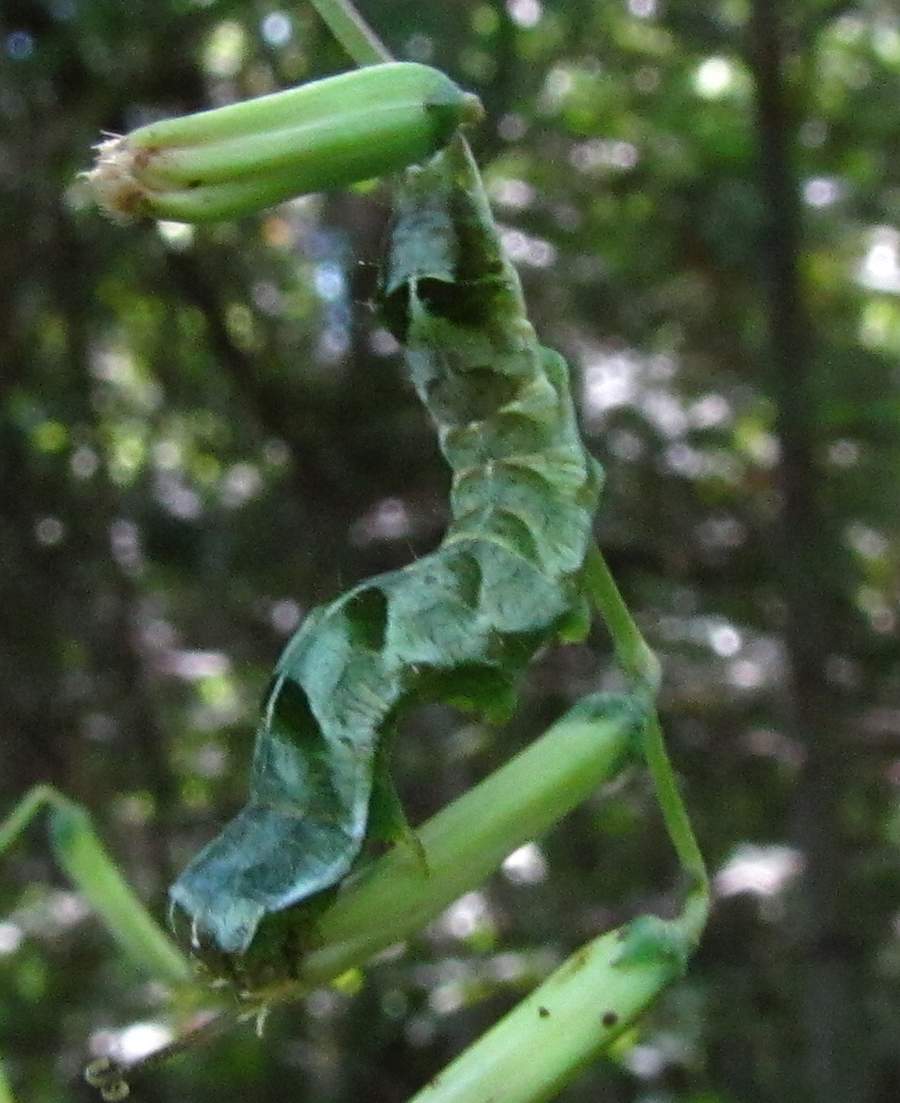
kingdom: Animalia
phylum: Arthropoda
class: Insecta
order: Lepidoptera
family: Noctuidae
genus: Melanchra
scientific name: Melanchra adjuncta
